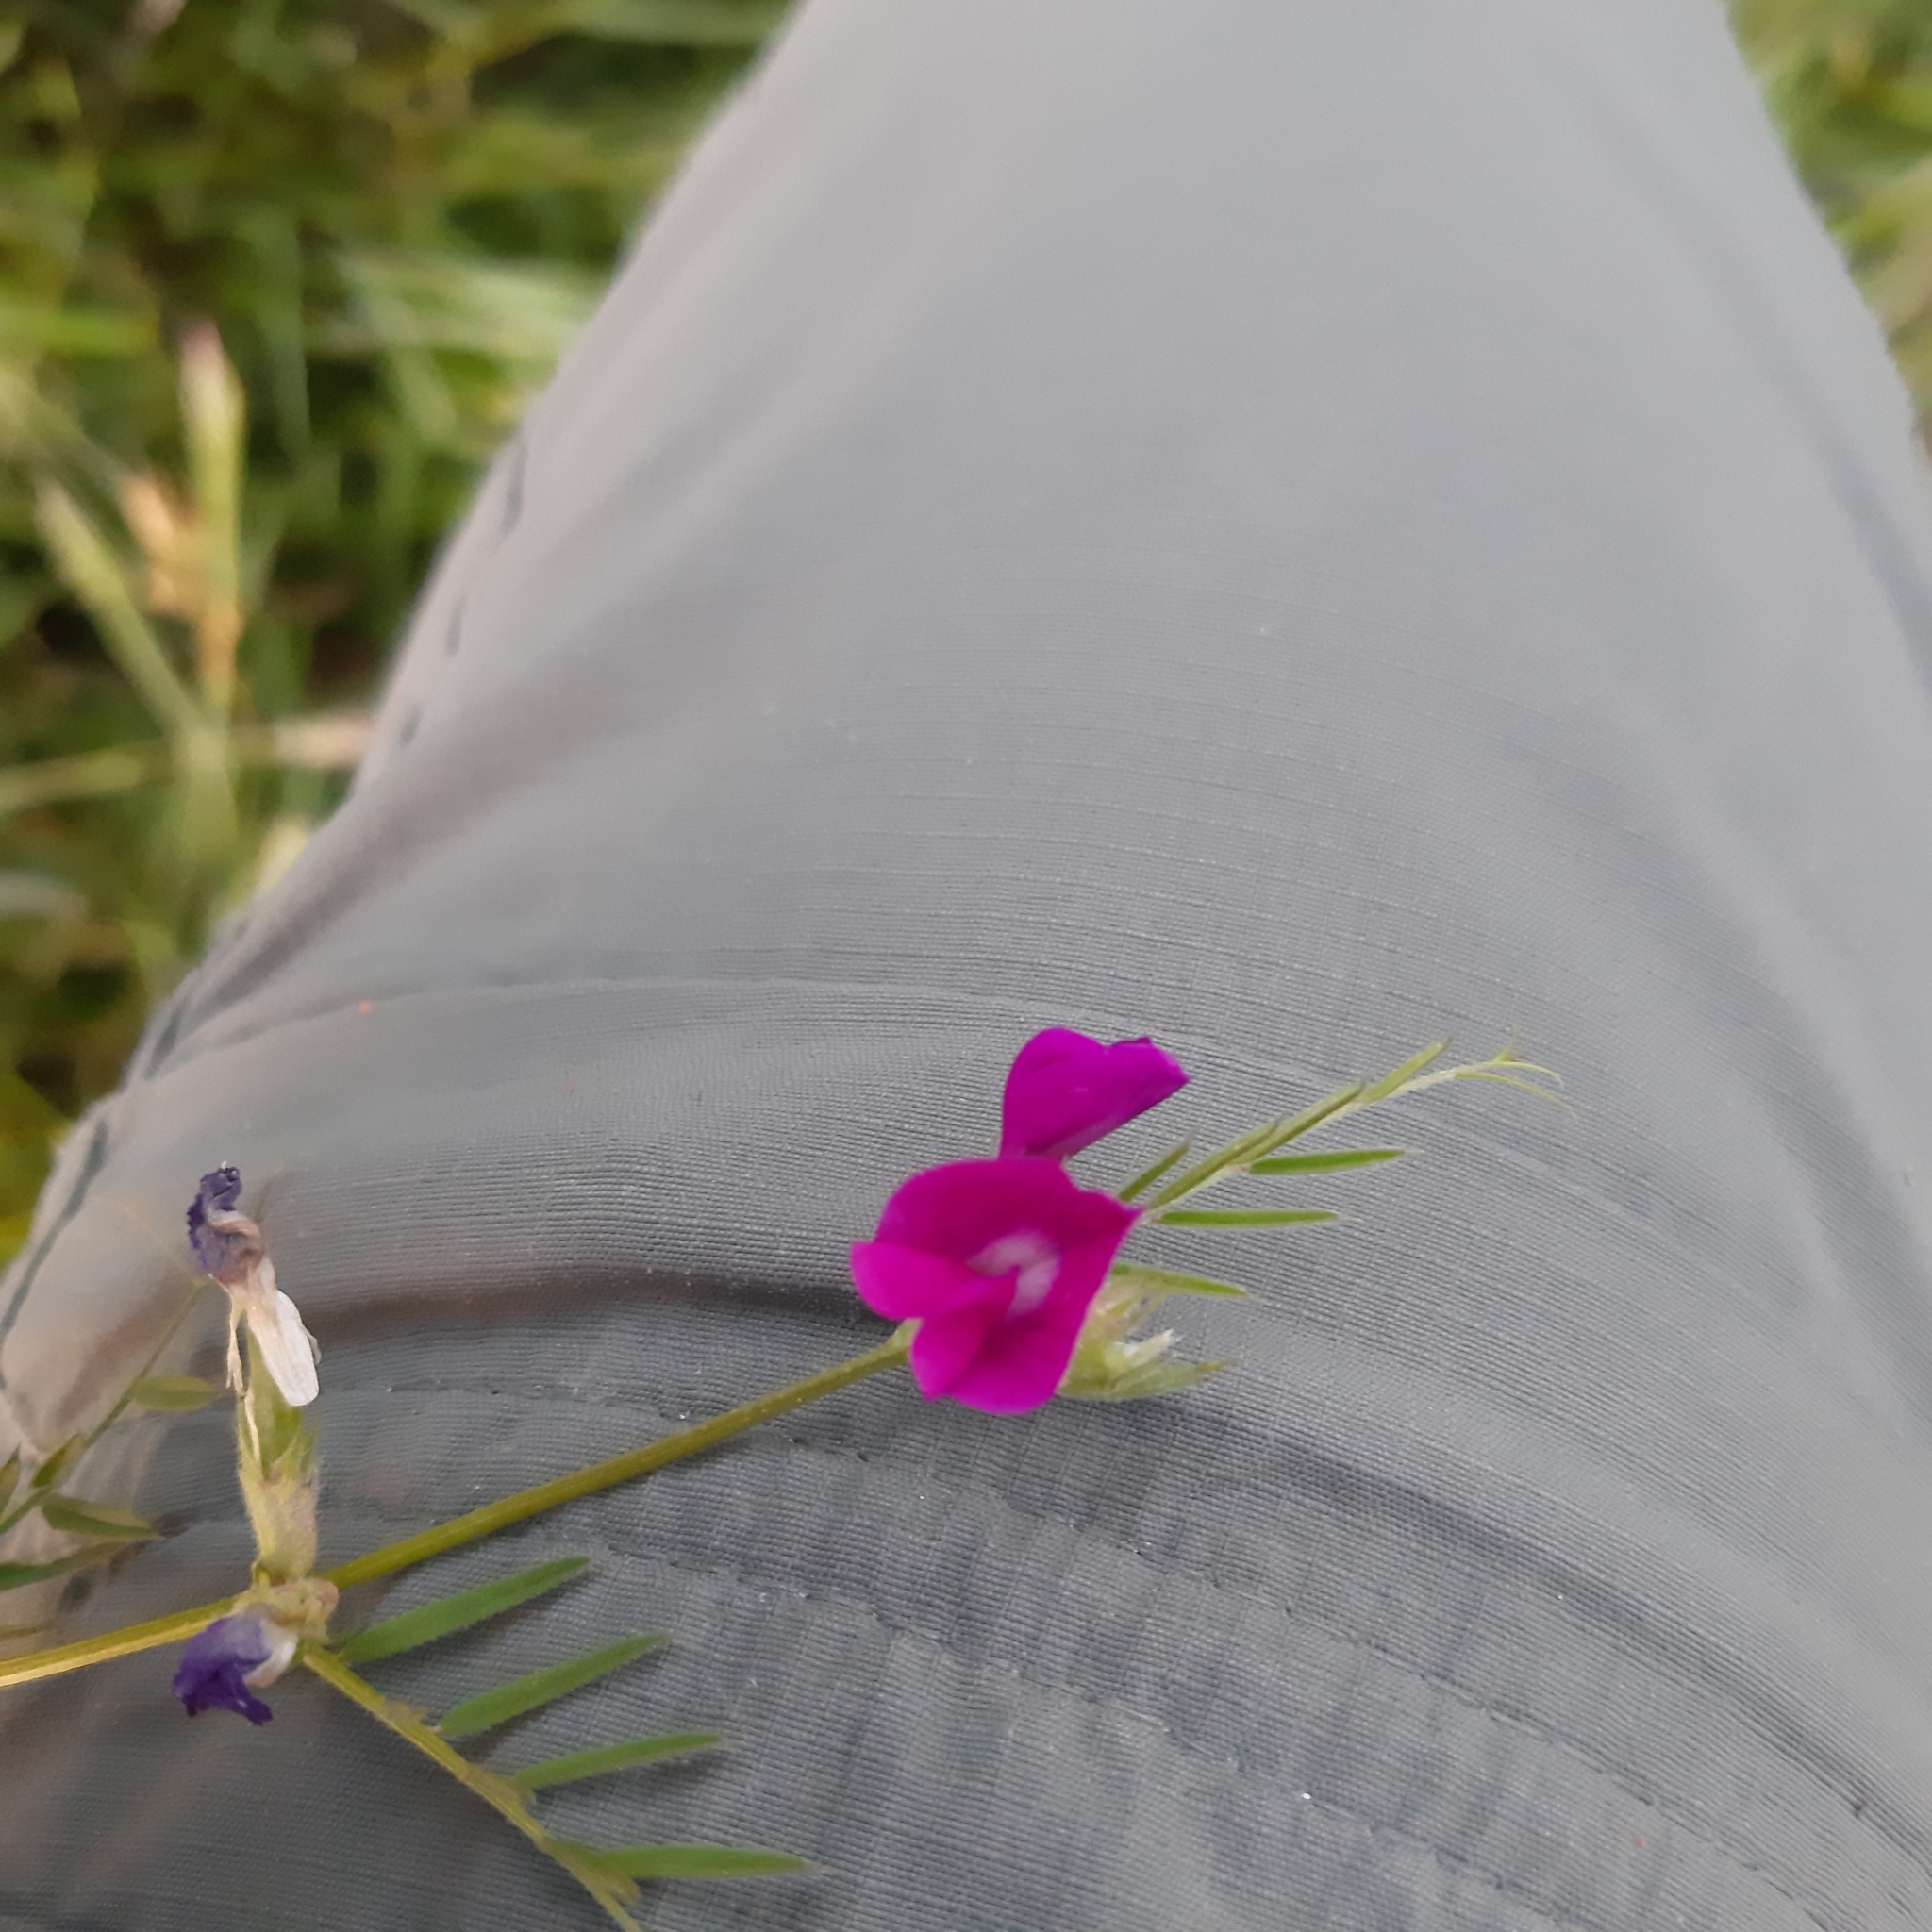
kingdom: Plantae
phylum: Tracheophyta
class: Magnoliopsida
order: Fabales
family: Fabaceae
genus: Vicia
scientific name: Vicia sativa
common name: Garden vetch
